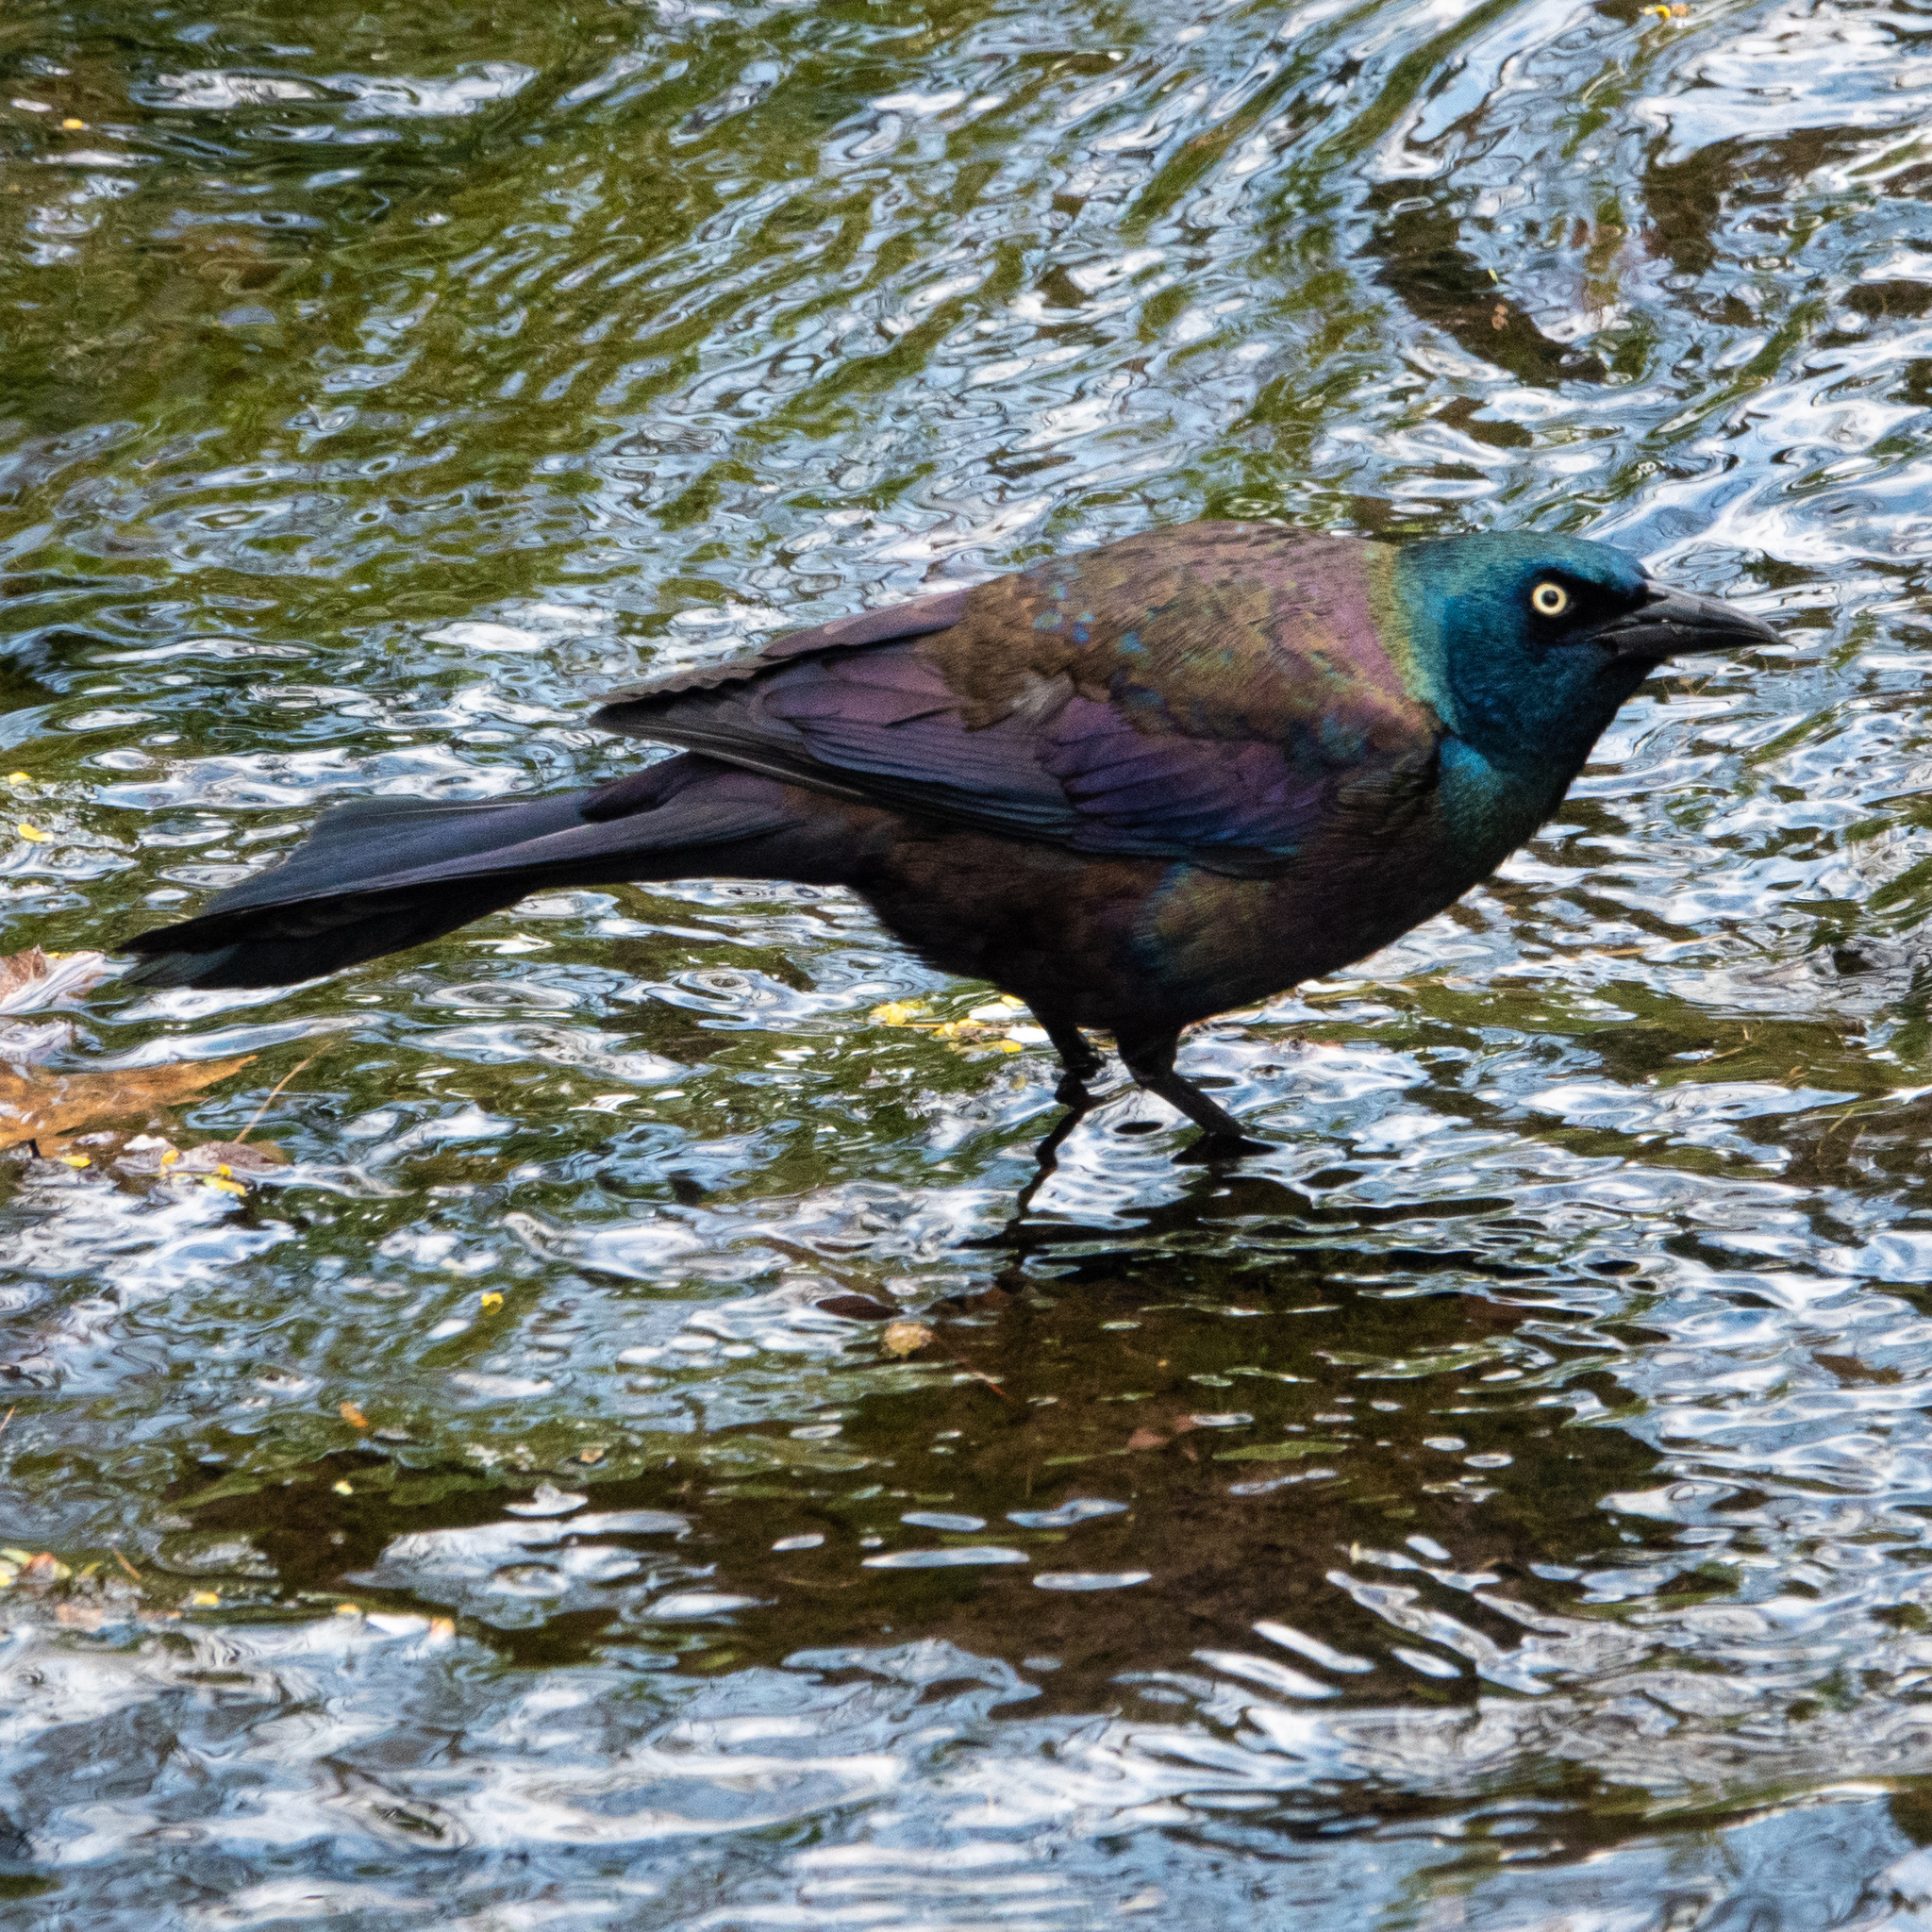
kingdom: Animalia
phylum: Chordata
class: Aves
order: Passeriformes
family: Icteridae
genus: Quiscalus
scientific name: Quiscalus quiscula
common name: Common grackle
